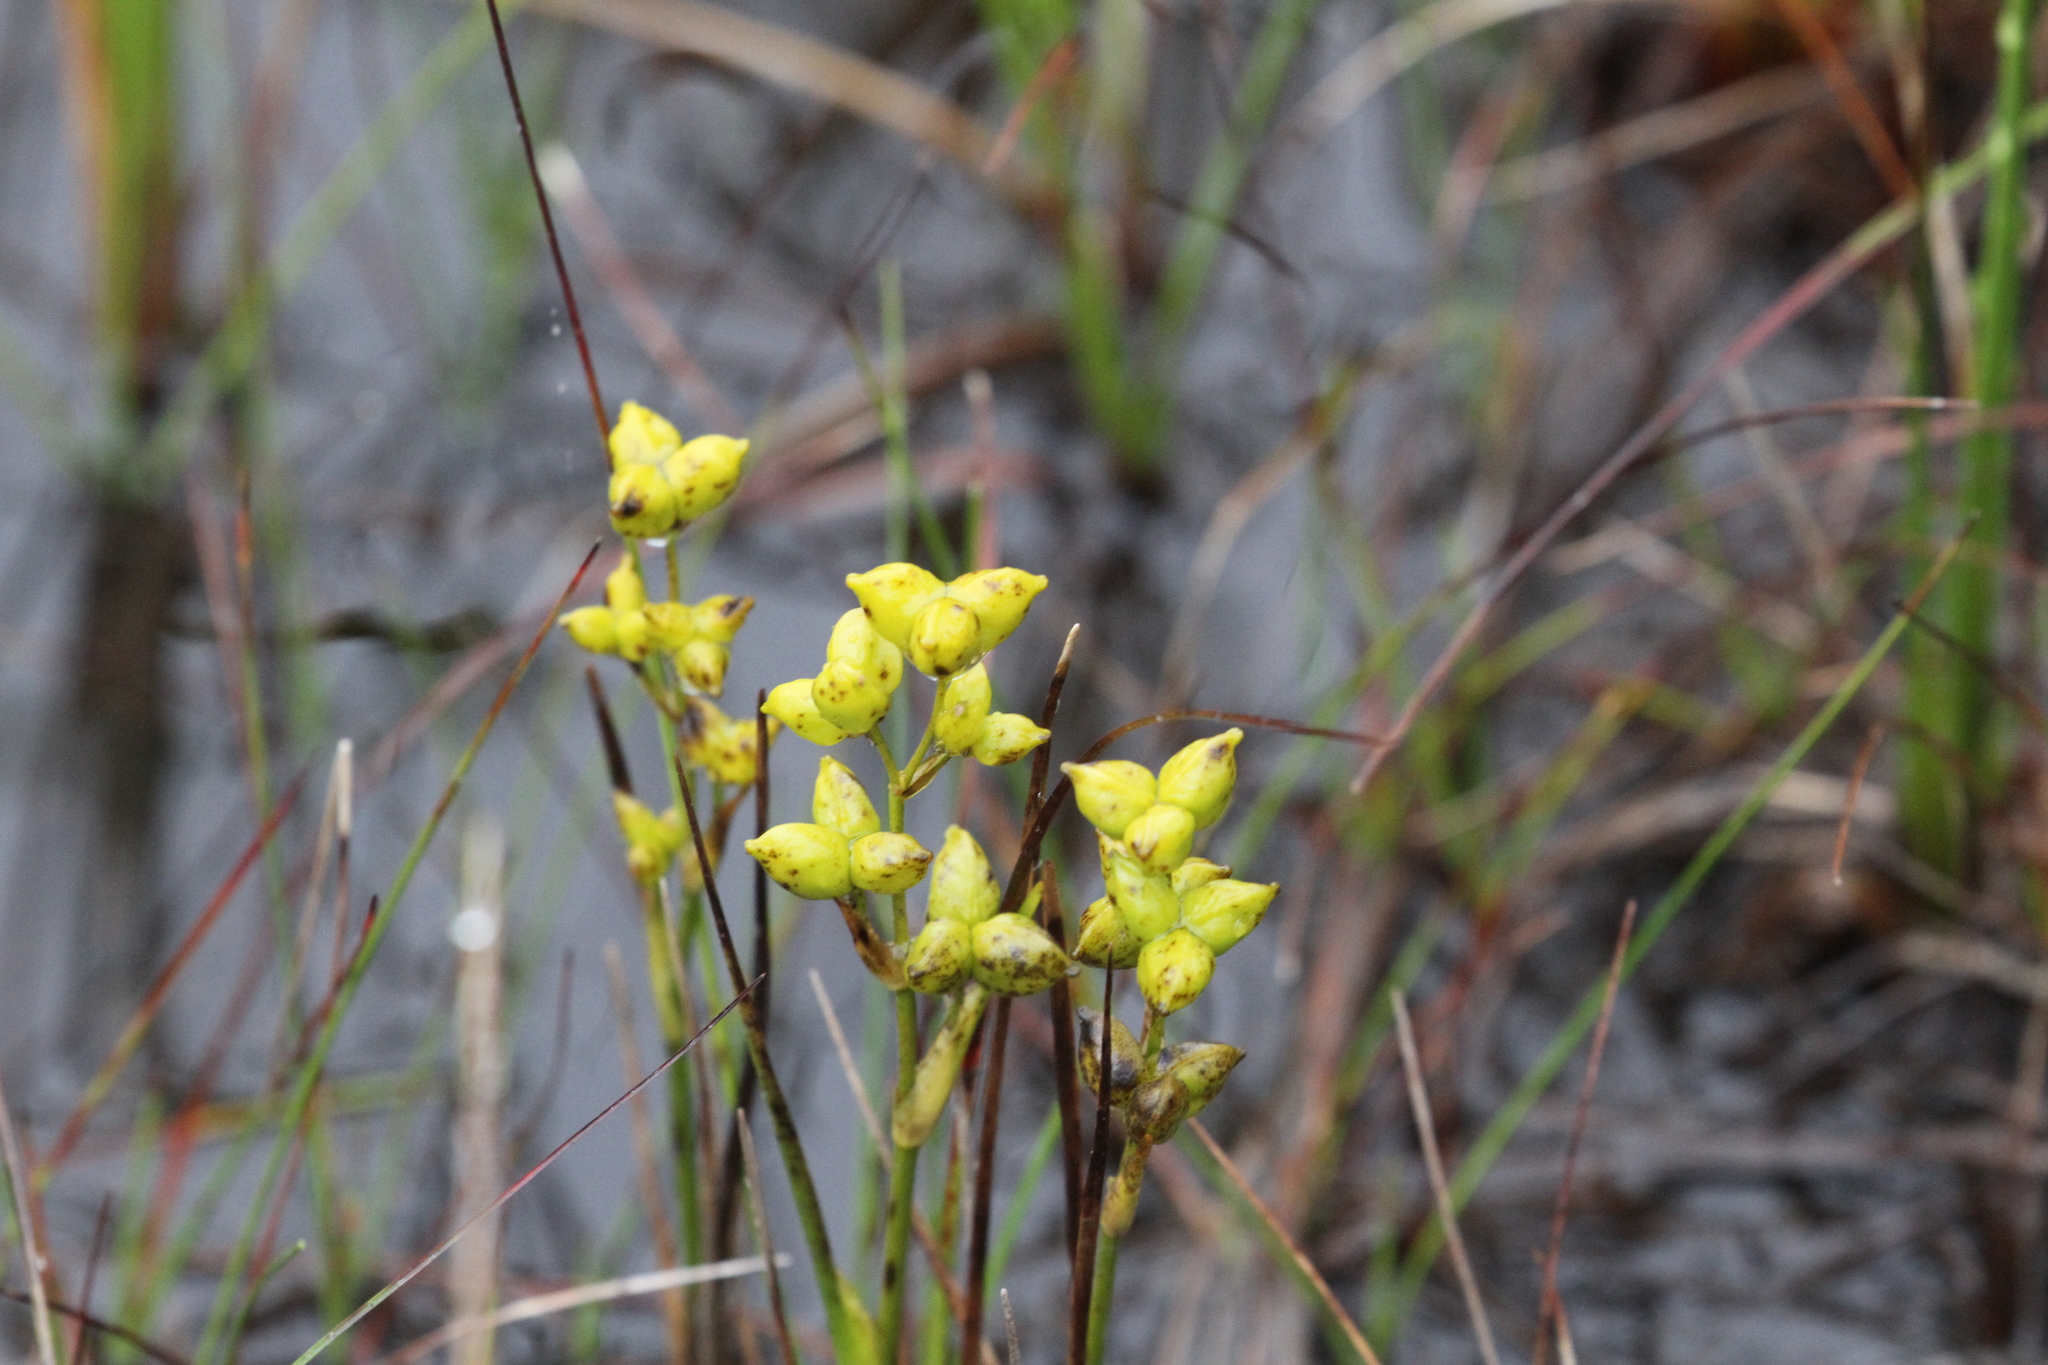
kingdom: Plantae
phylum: Tracheophyta
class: Liliopsida
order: Alismatales
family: Scheuchzeriaceae
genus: Scheuchzeria
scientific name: Scheuchzeria palustris
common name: Rannoch-rush
